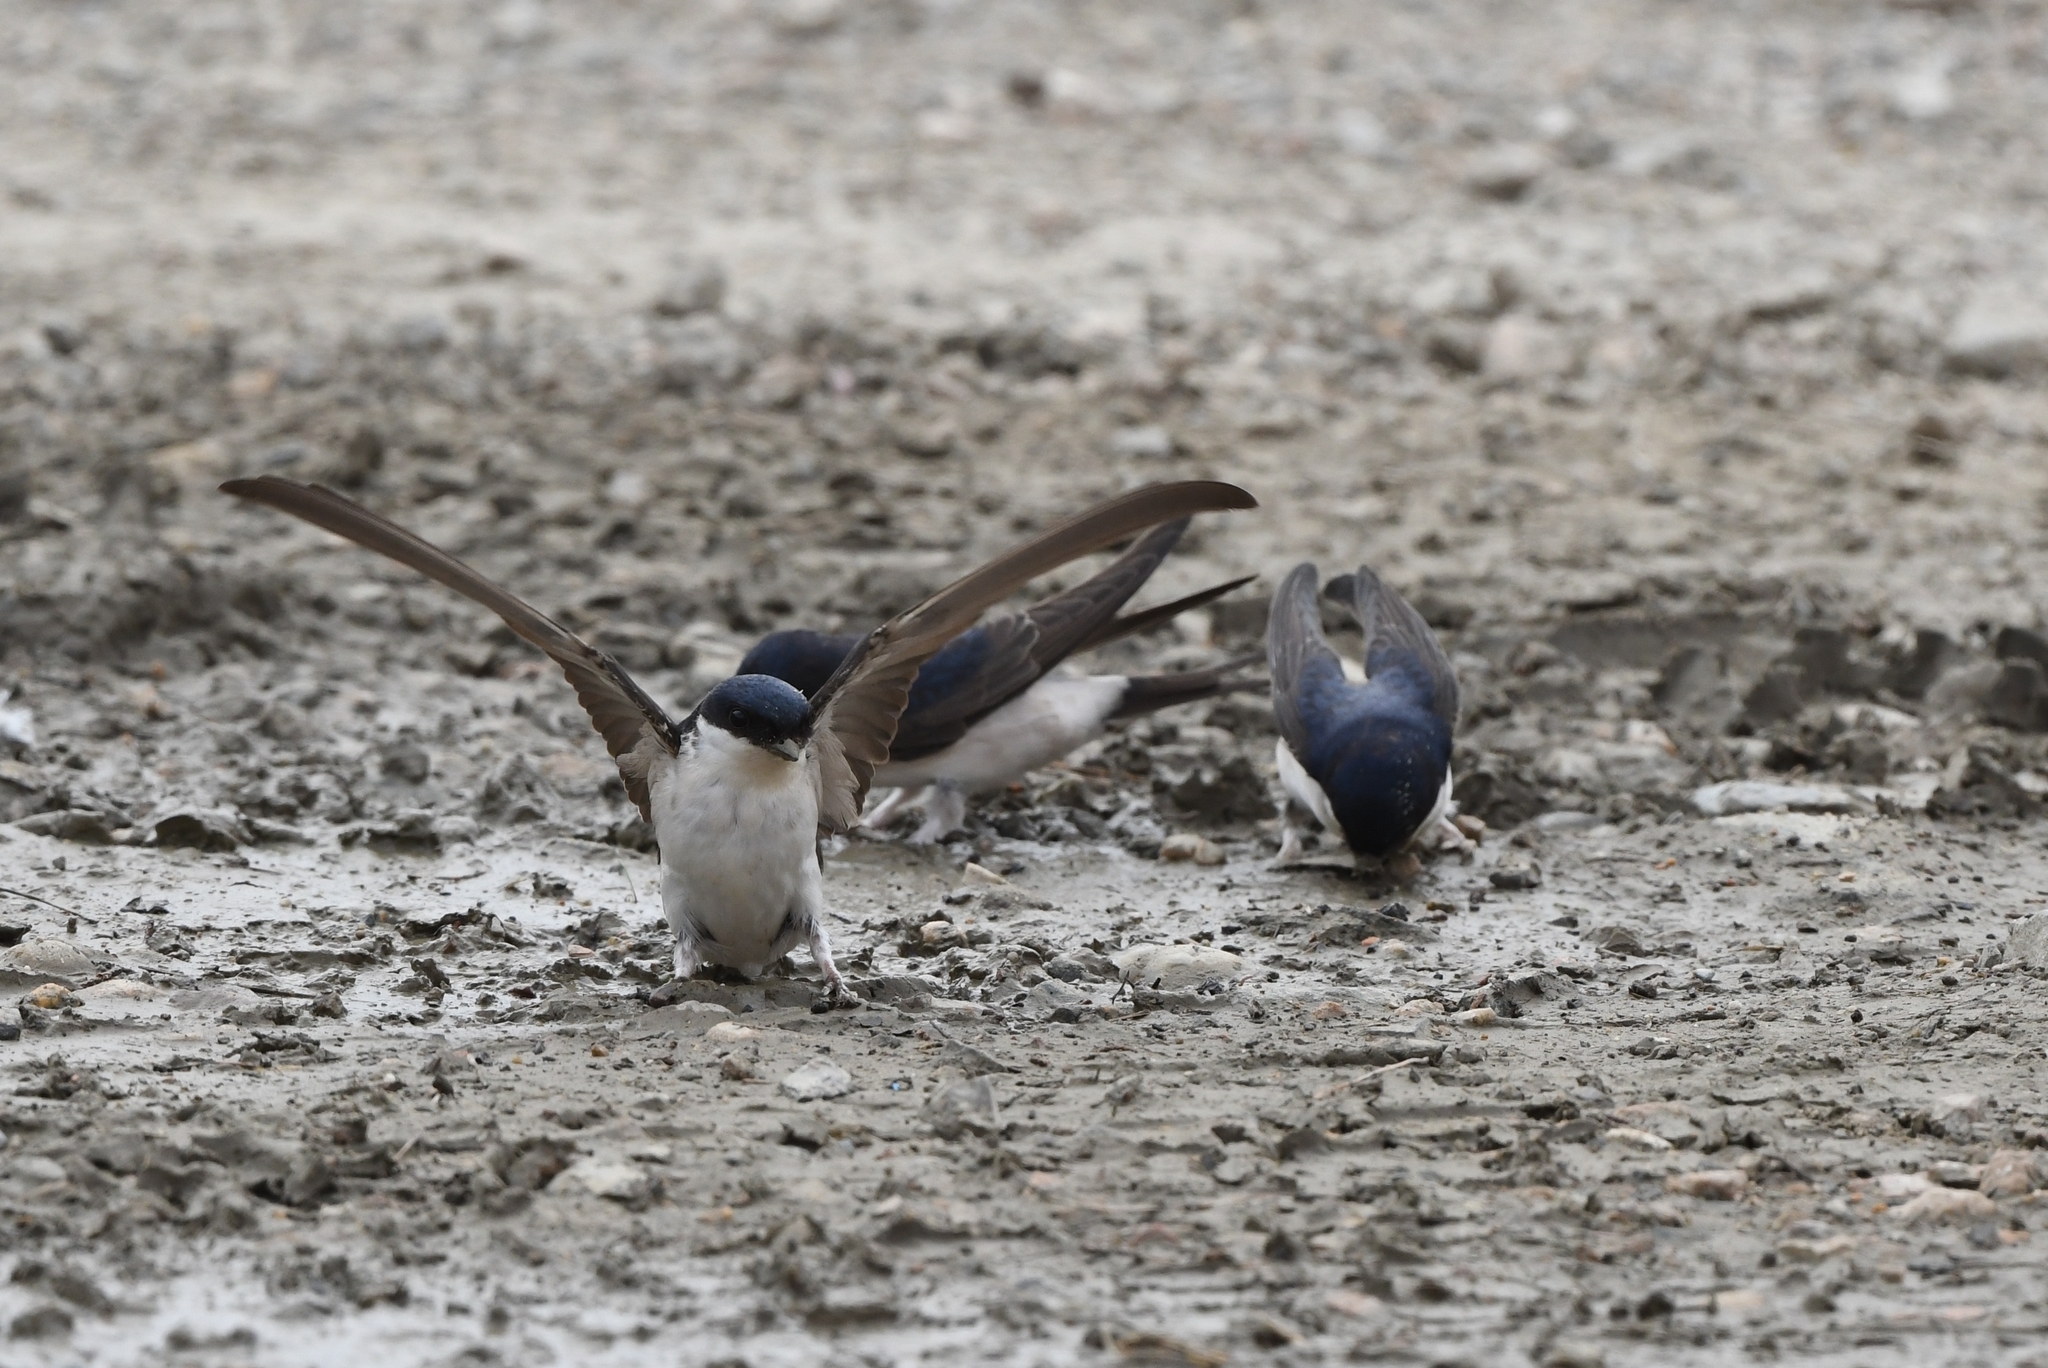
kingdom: Animalia
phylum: Chordata
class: Aves
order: Passeriformes
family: Hirundinidae
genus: Delichon
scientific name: Delichon urbicum
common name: Common house martin
